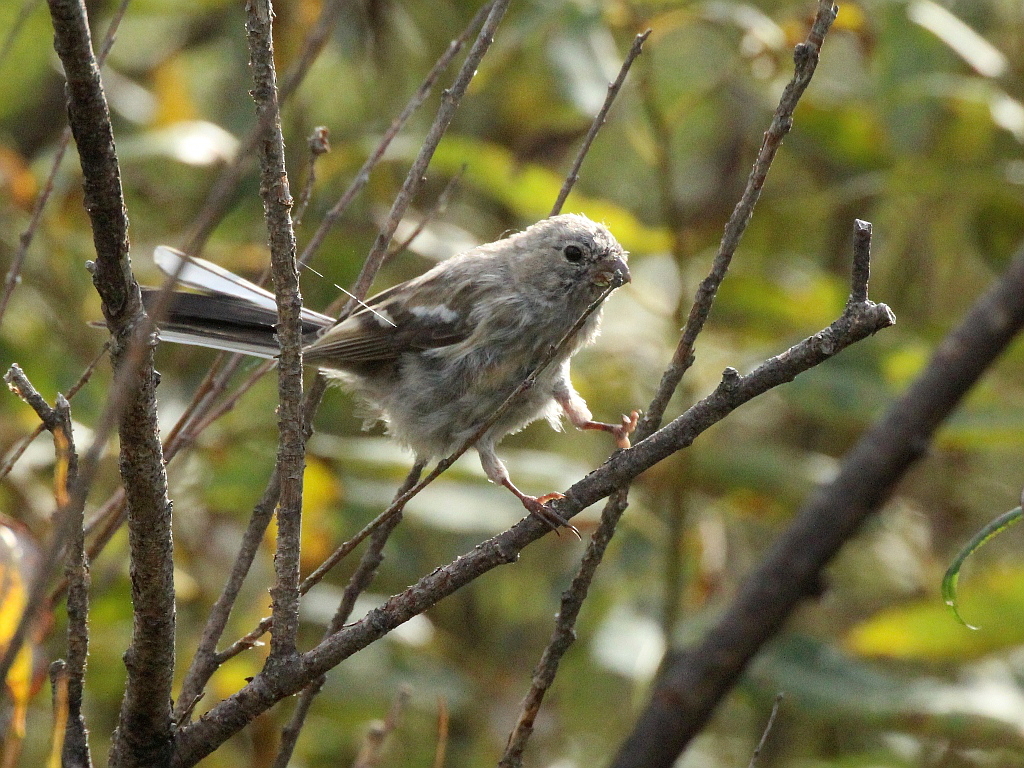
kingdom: Animalia
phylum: Chordata
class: Aves
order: Passeriformes
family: Fringillidae
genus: Carpodacus
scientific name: Carpodacus sibiricus
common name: Long-tailed rosefinch
